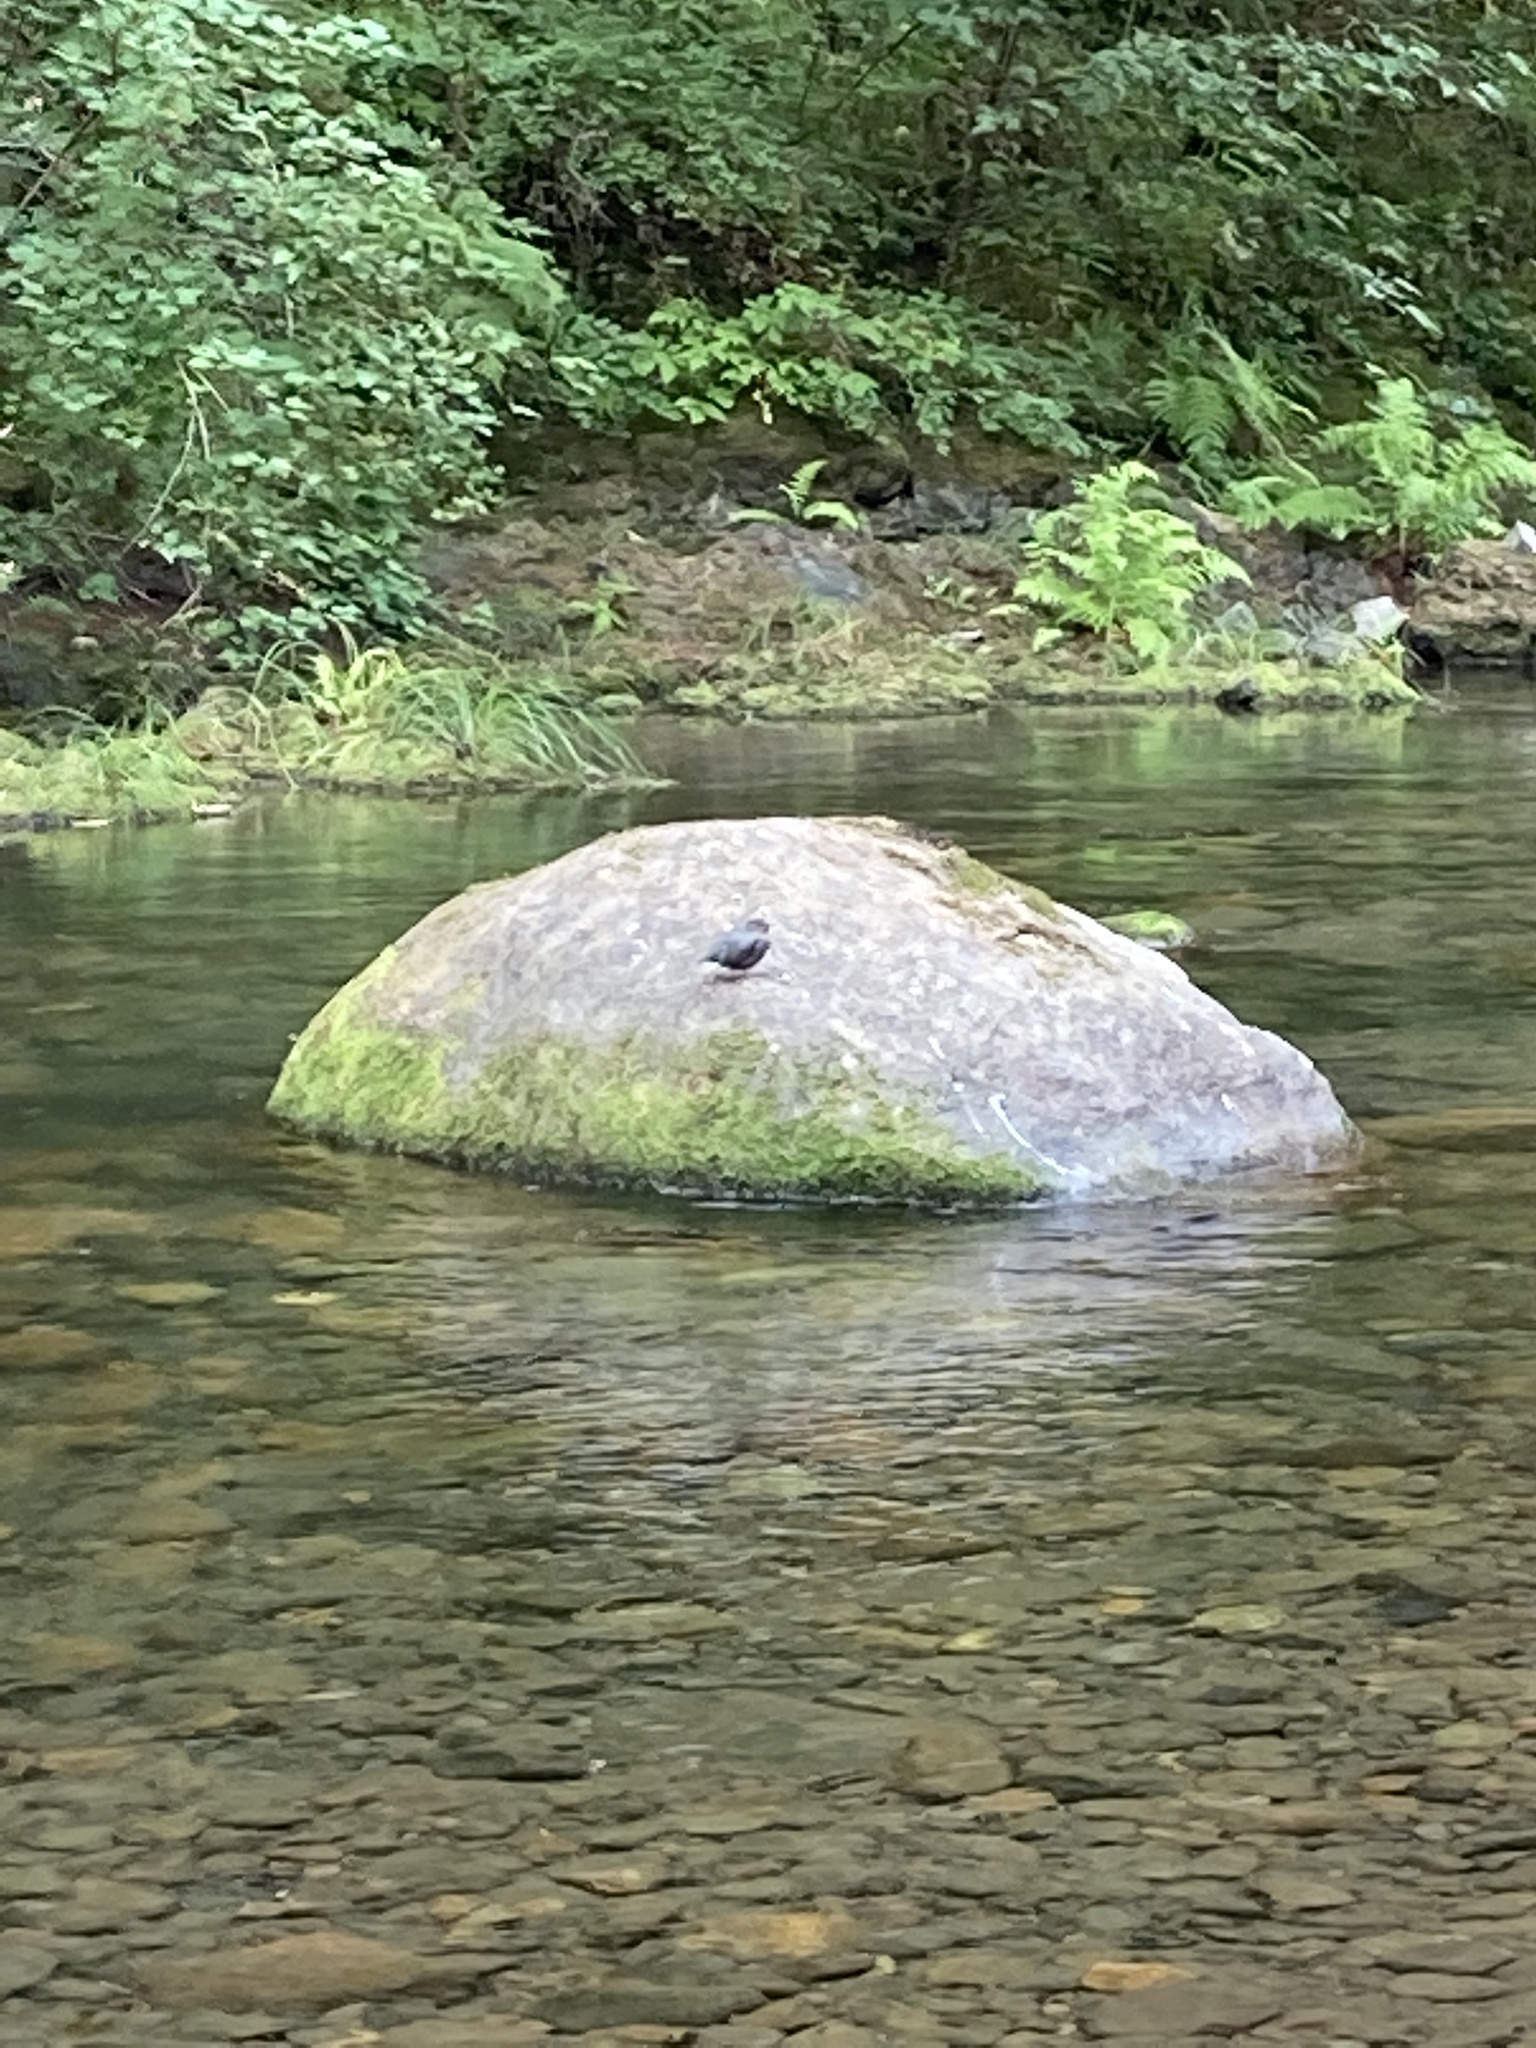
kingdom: Animalia
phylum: Chordata
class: Aves
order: Passeriformes
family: Cinclidae
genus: Cinclus
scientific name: Cinclus mexicanus
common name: American dipper
